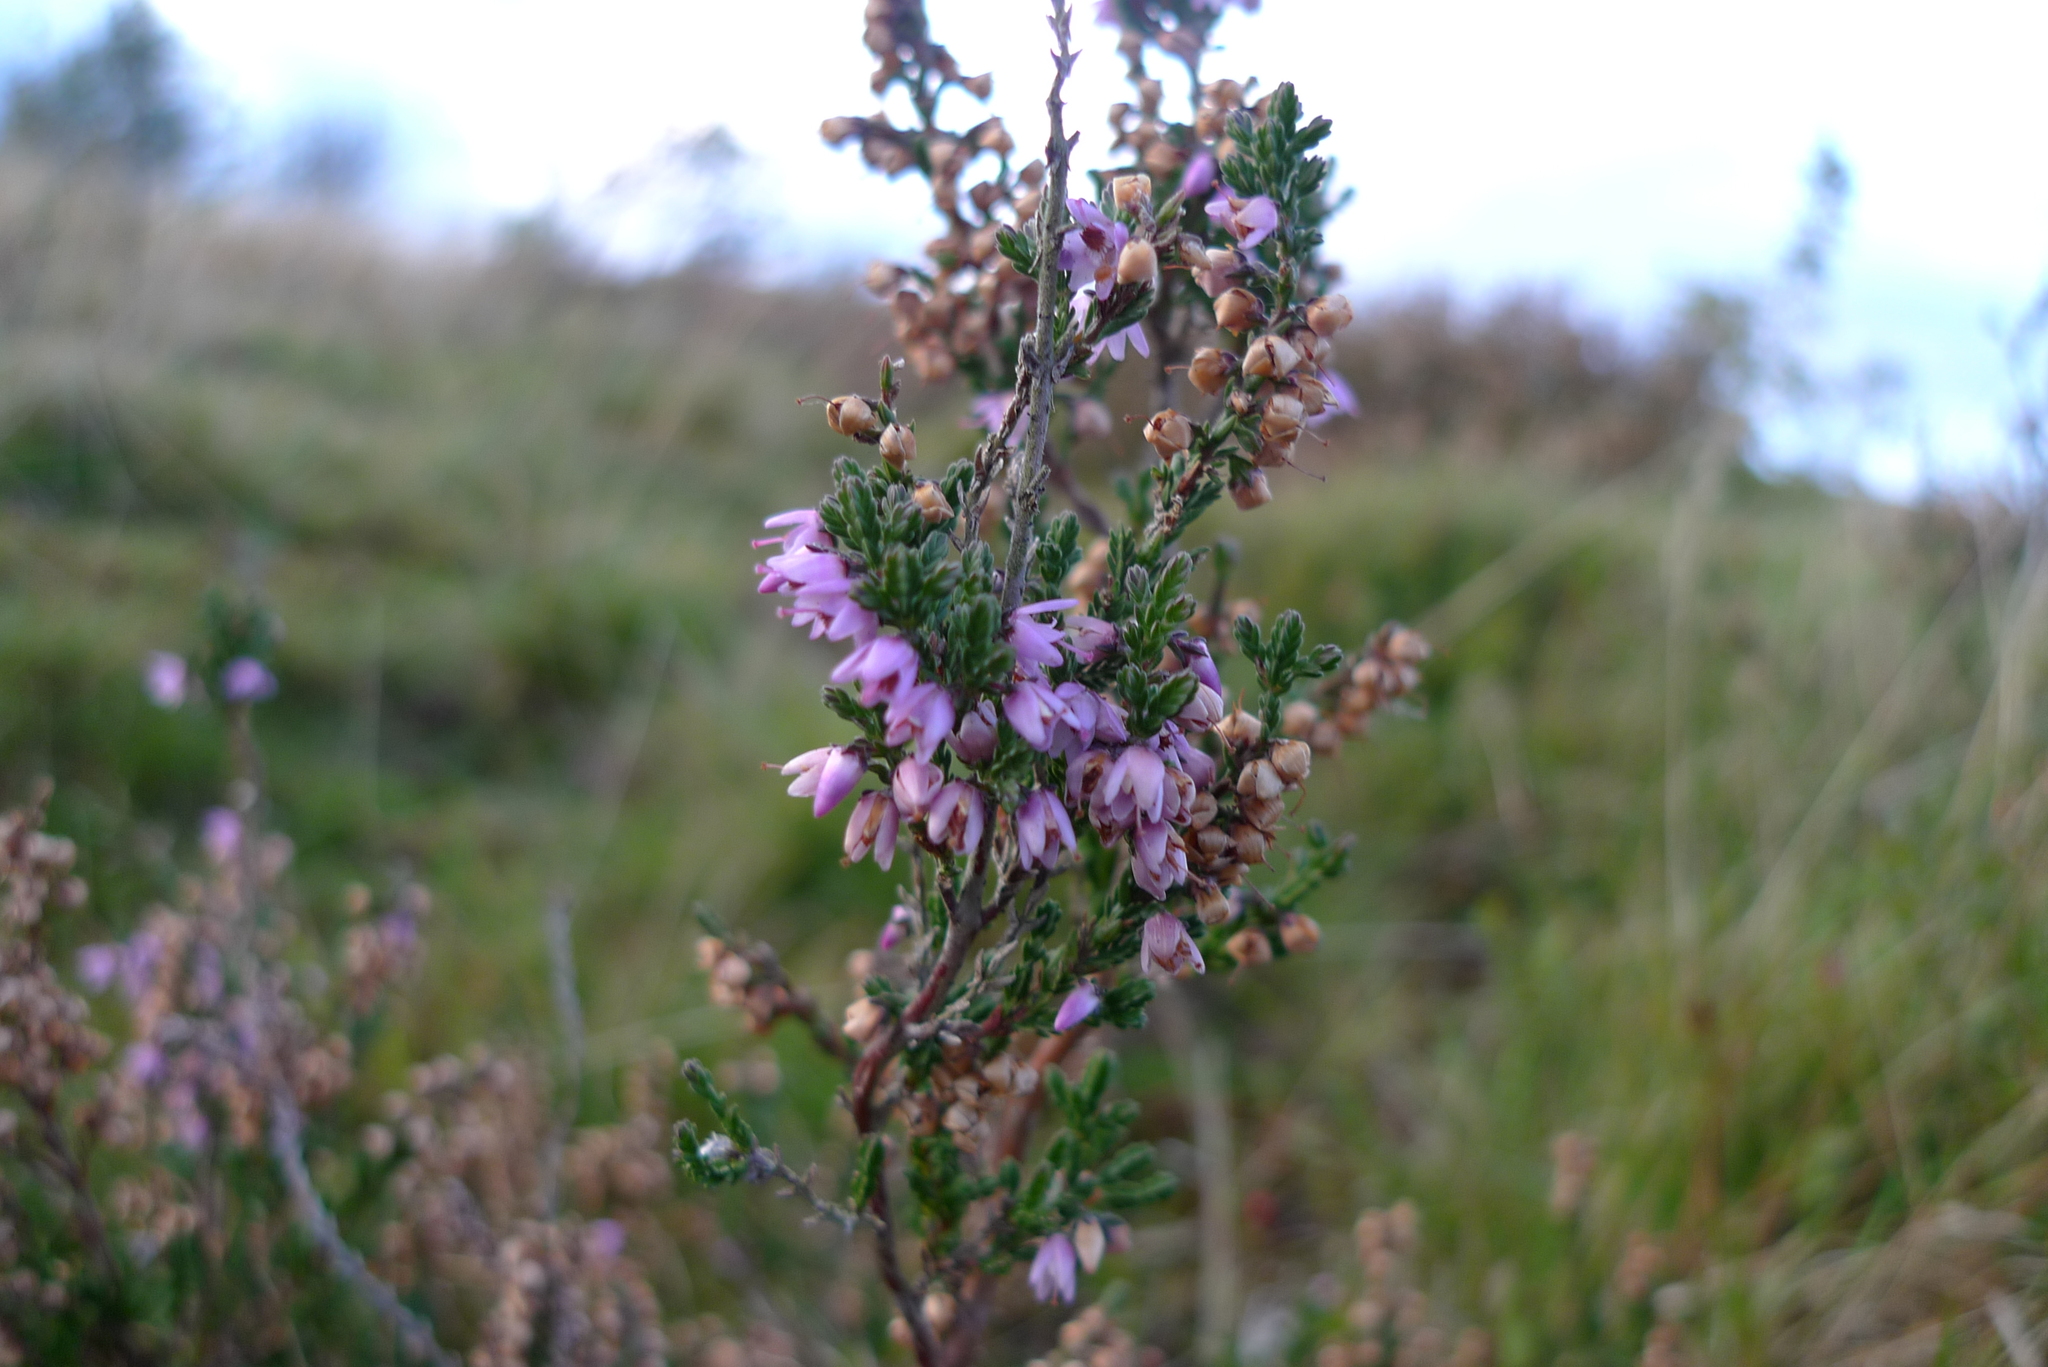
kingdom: Plantae
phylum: Tracheophyta
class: Magnoliopsida
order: Ericales
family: Ericaceae
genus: Calluna
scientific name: Calluna vulgaris
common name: Heather
